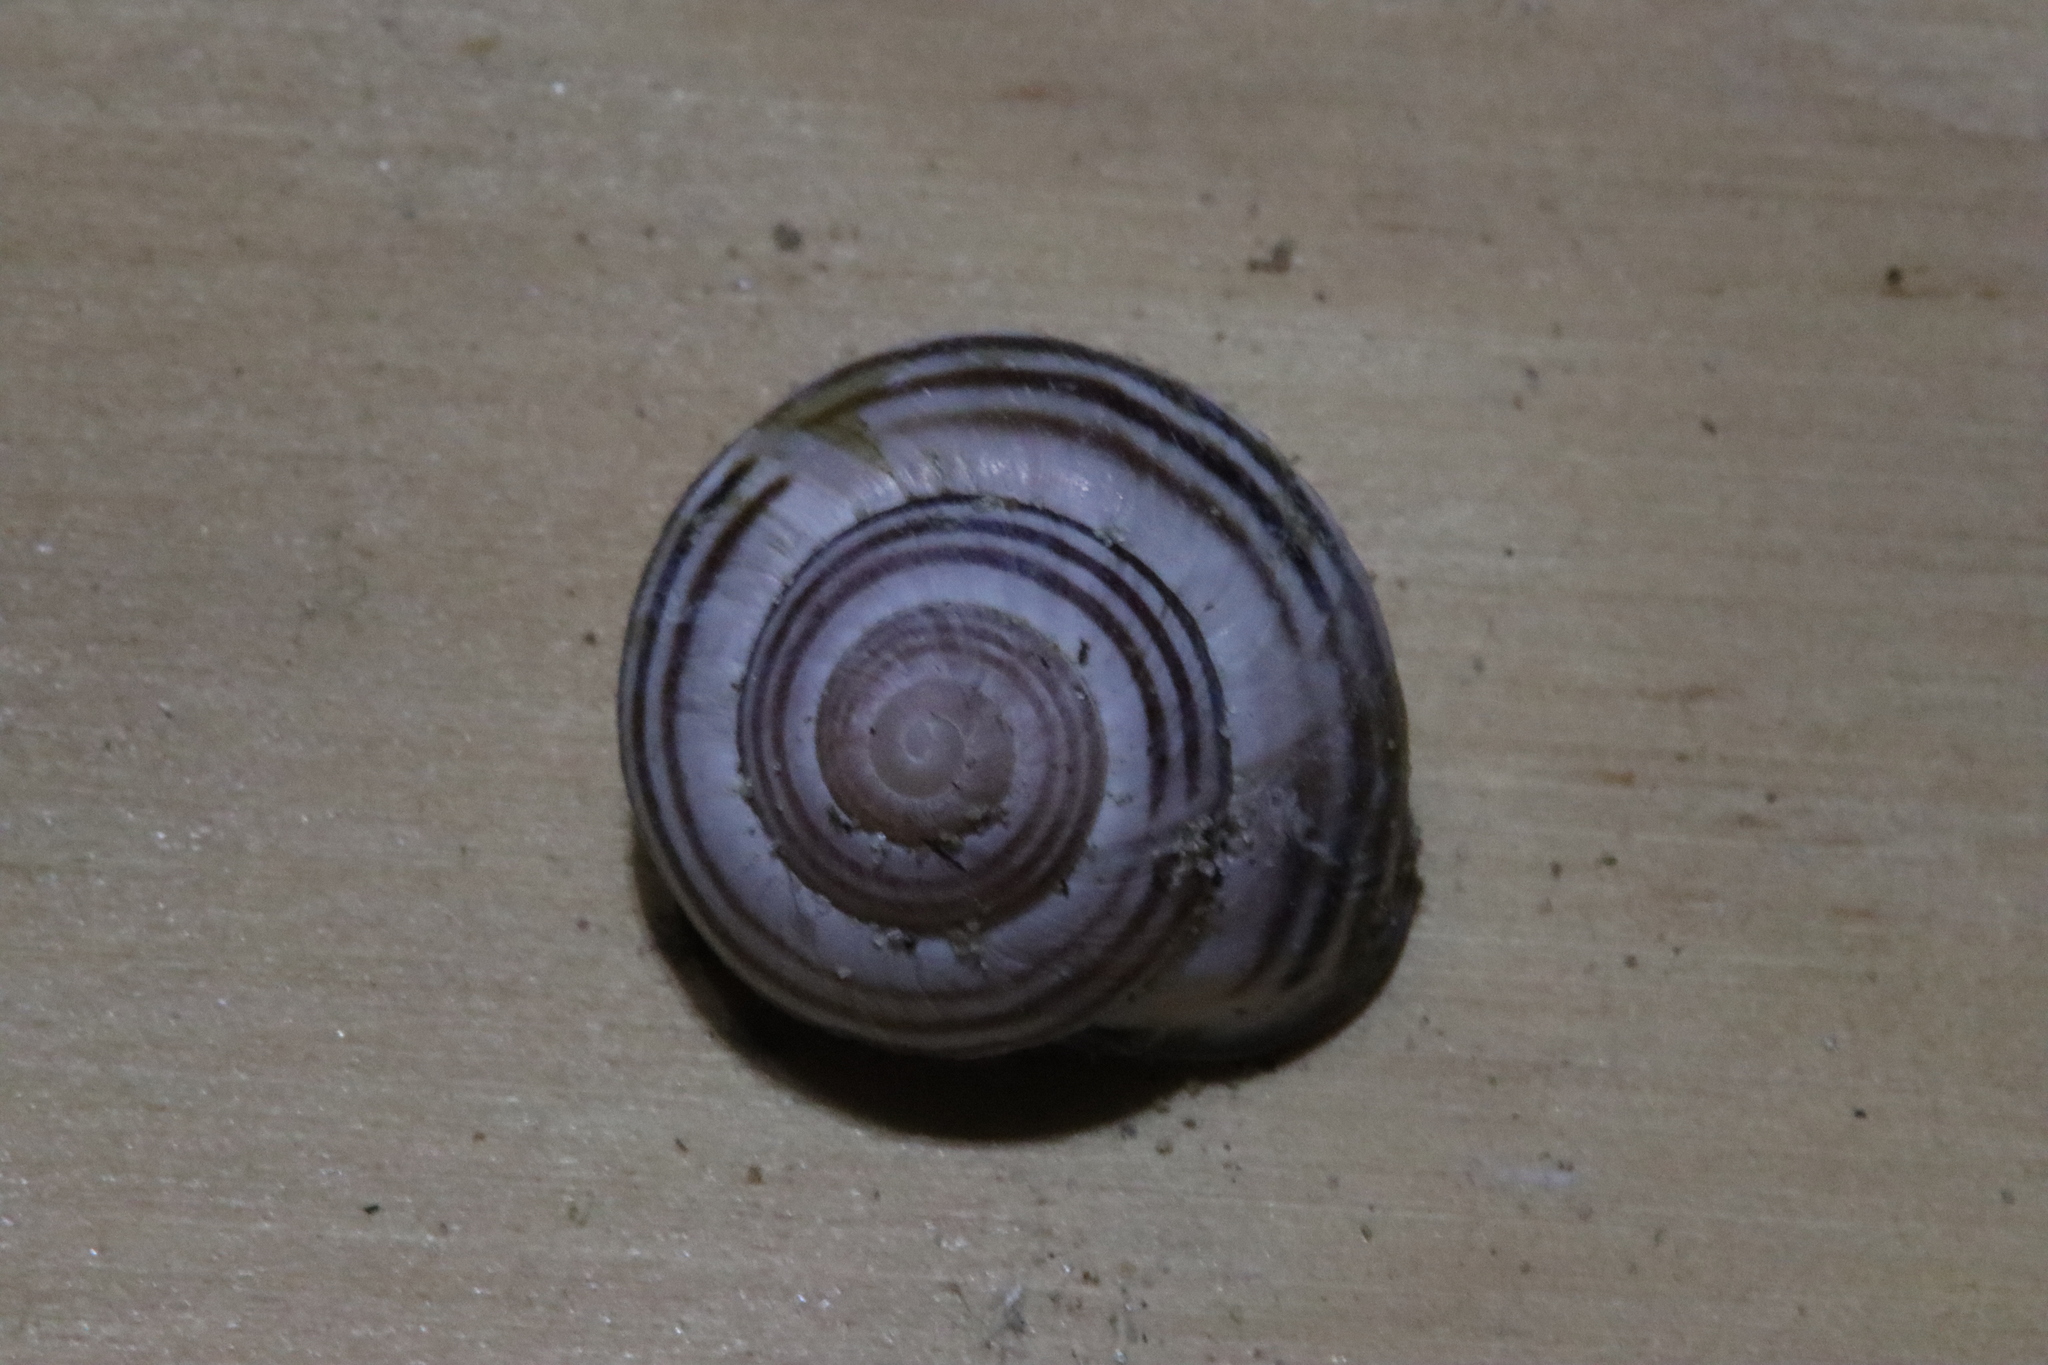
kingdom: Animalia
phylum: Mollusca
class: Gastropoda
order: Stylommatophora
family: Helicidae
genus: Cepaea
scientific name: Cepaea nemoralis
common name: Grovesnail
